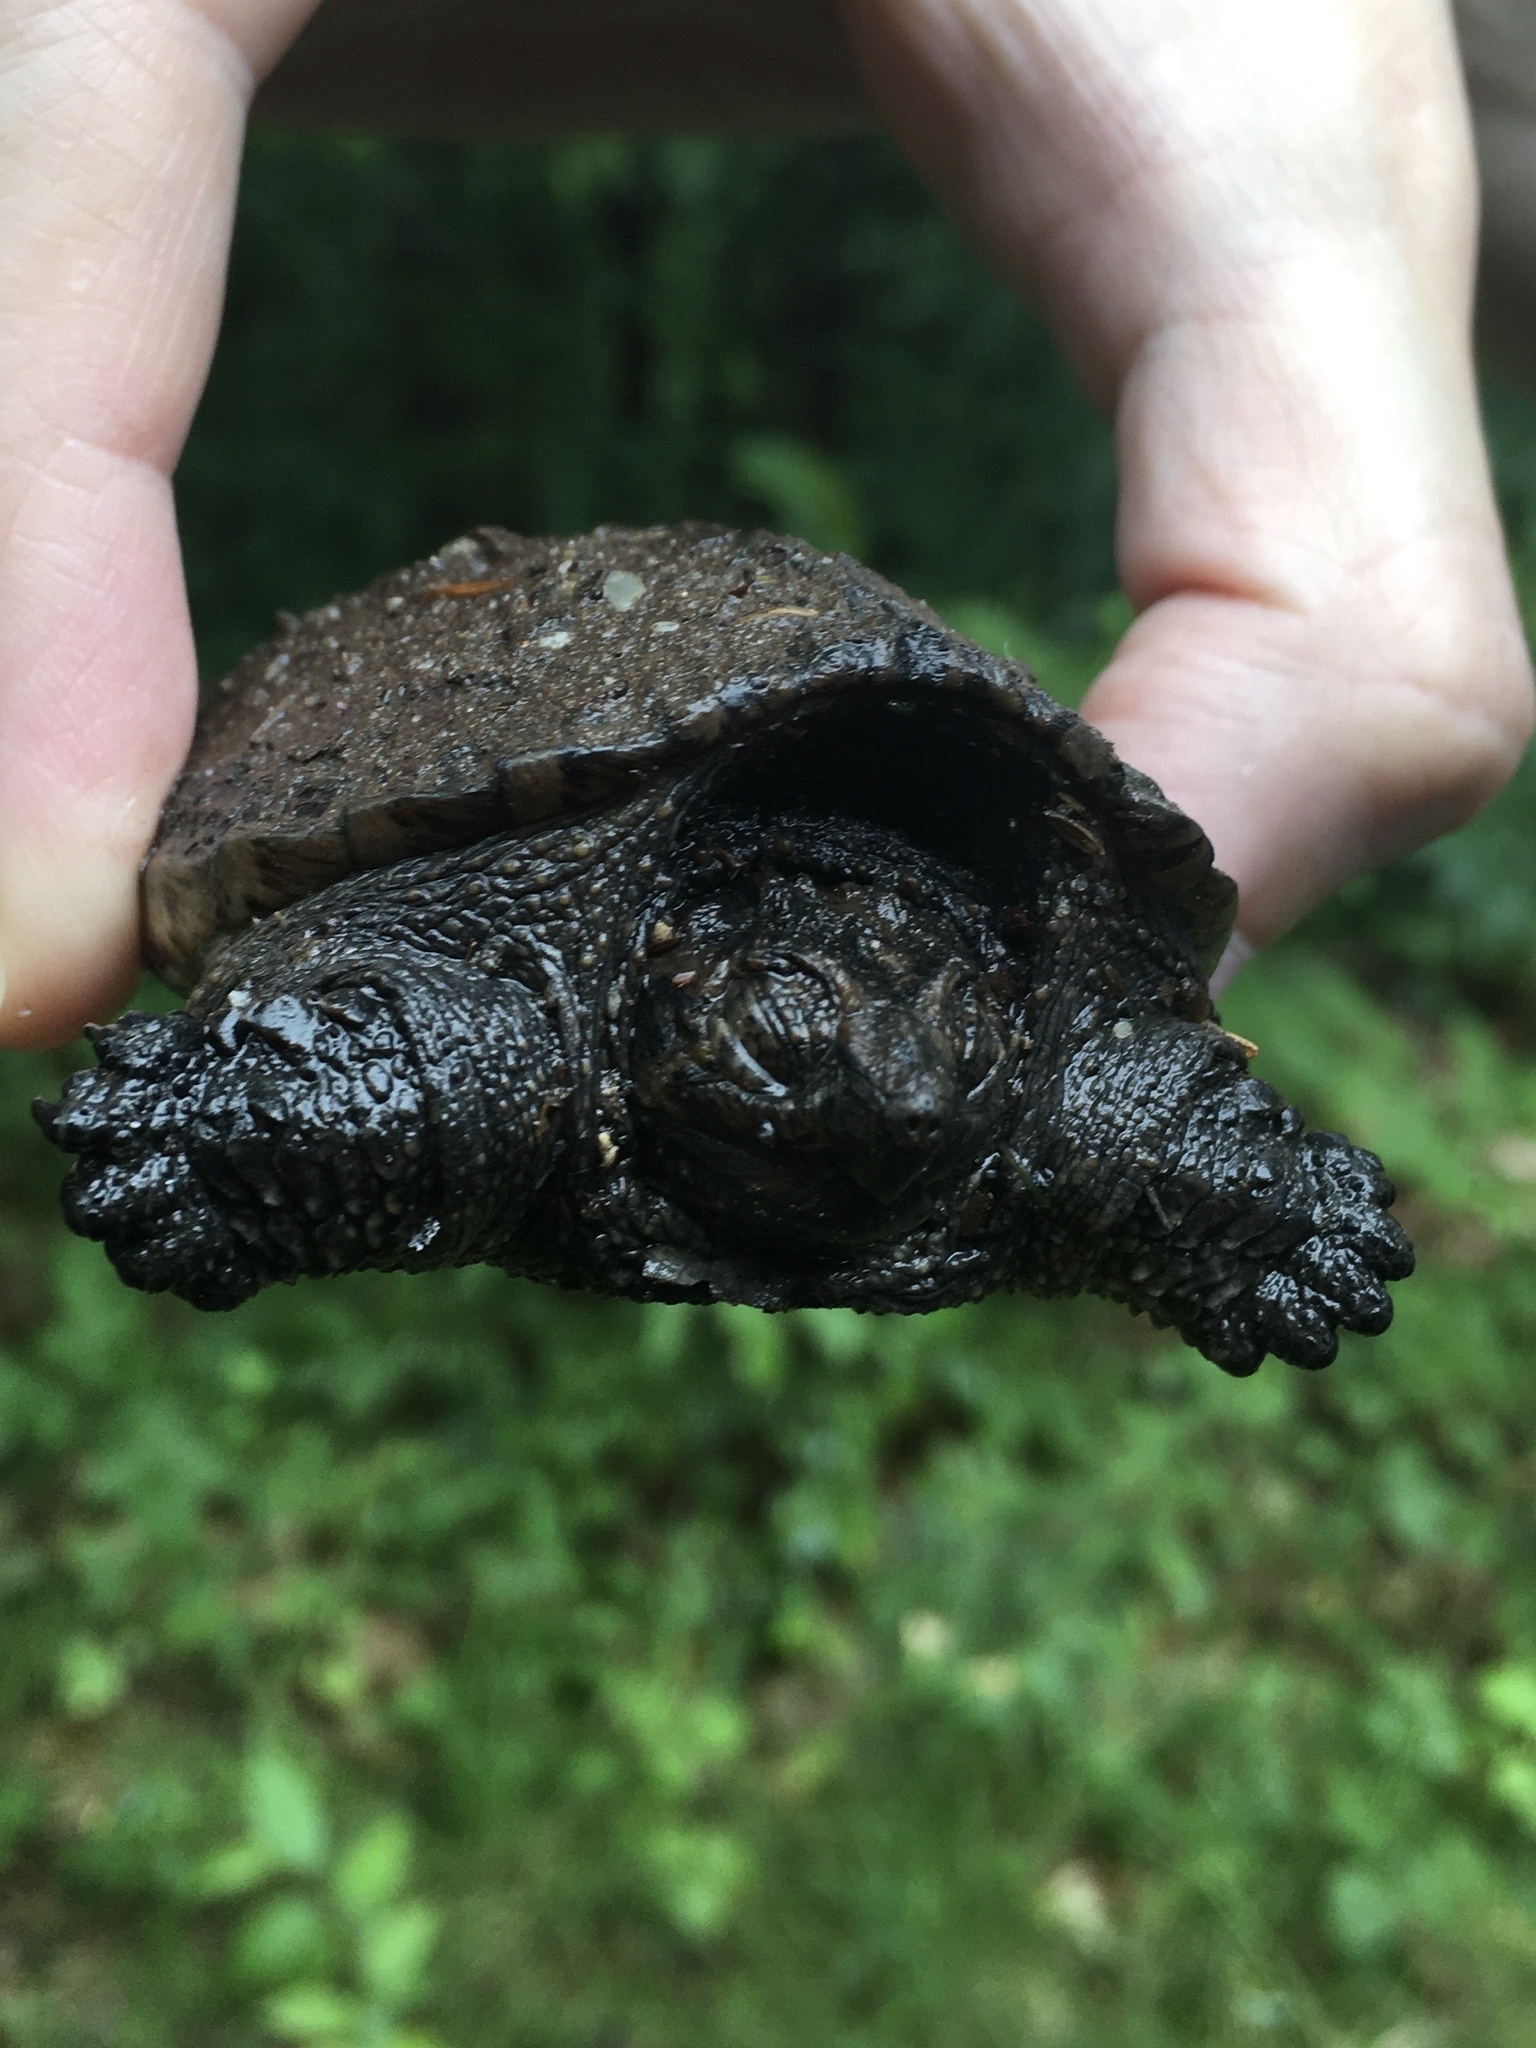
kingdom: Animalia
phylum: Chordata
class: Testudines
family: Chelydridae
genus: Chelydra
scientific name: Chelydra serpentina
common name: Common snapping turtle
